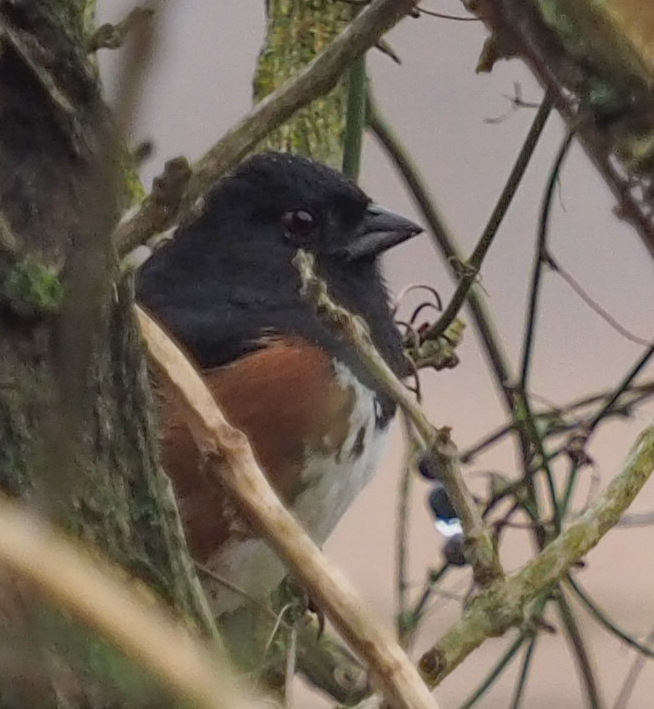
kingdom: Animalia
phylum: Chordata
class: Aves
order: Passeriformes
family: Passerellidae
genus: Pipilo
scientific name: Pipilo erythrophthalmus
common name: Eastern towhee
